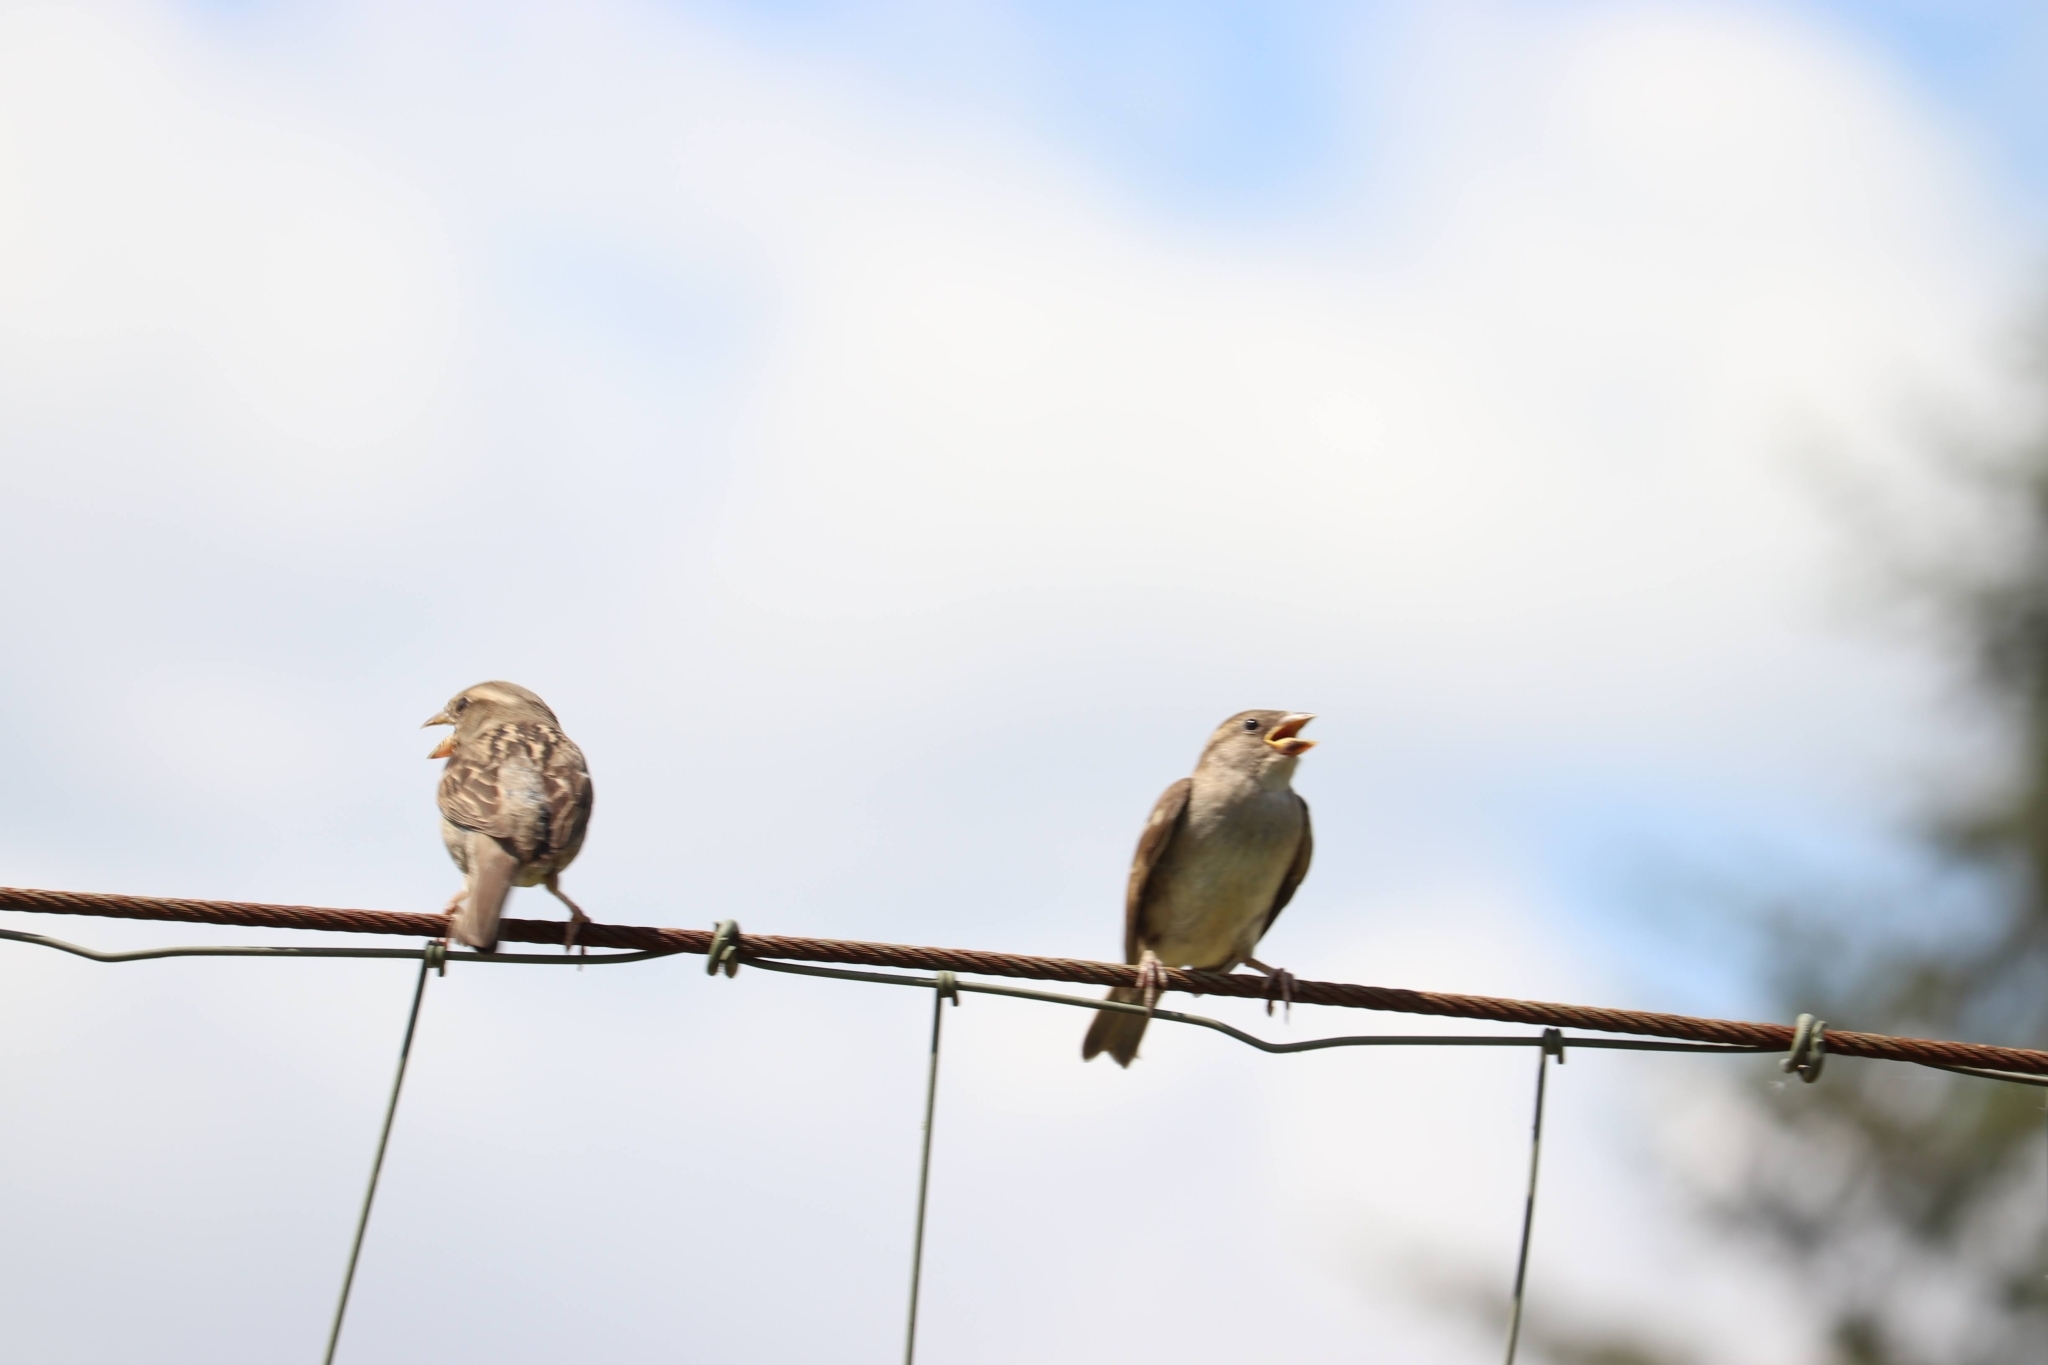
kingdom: Animalia
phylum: Chordata
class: Aves
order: Passeriformes
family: Passeridae
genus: Passer
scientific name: Passer domesticus
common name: House sparrow
